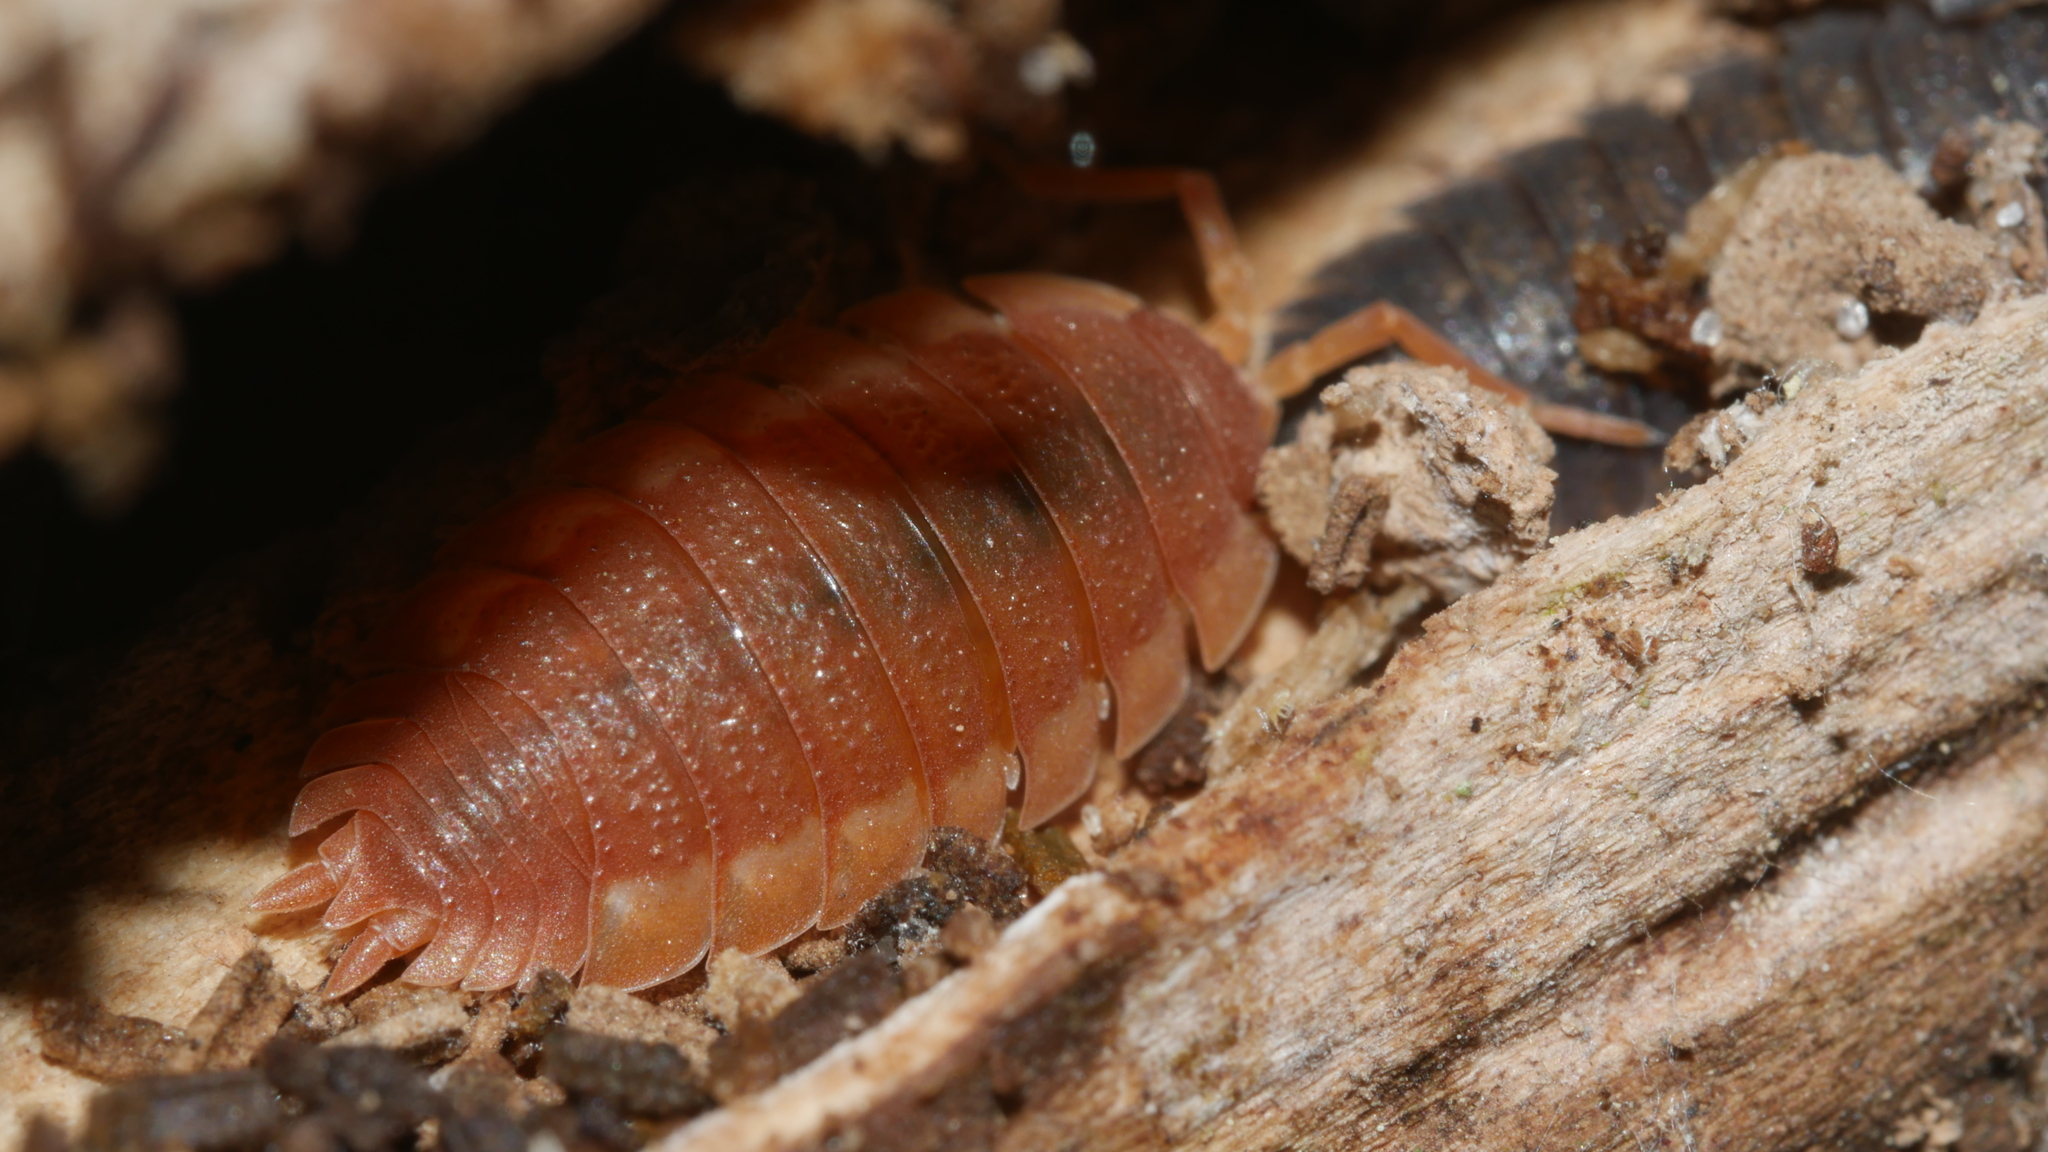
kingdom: Animalia
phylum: Arthropoda
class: Malacostraca
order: Isopoda
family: Porcellionidae
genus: Porcellio
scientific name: Porcellio scaber
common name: Common rough woodlouse
